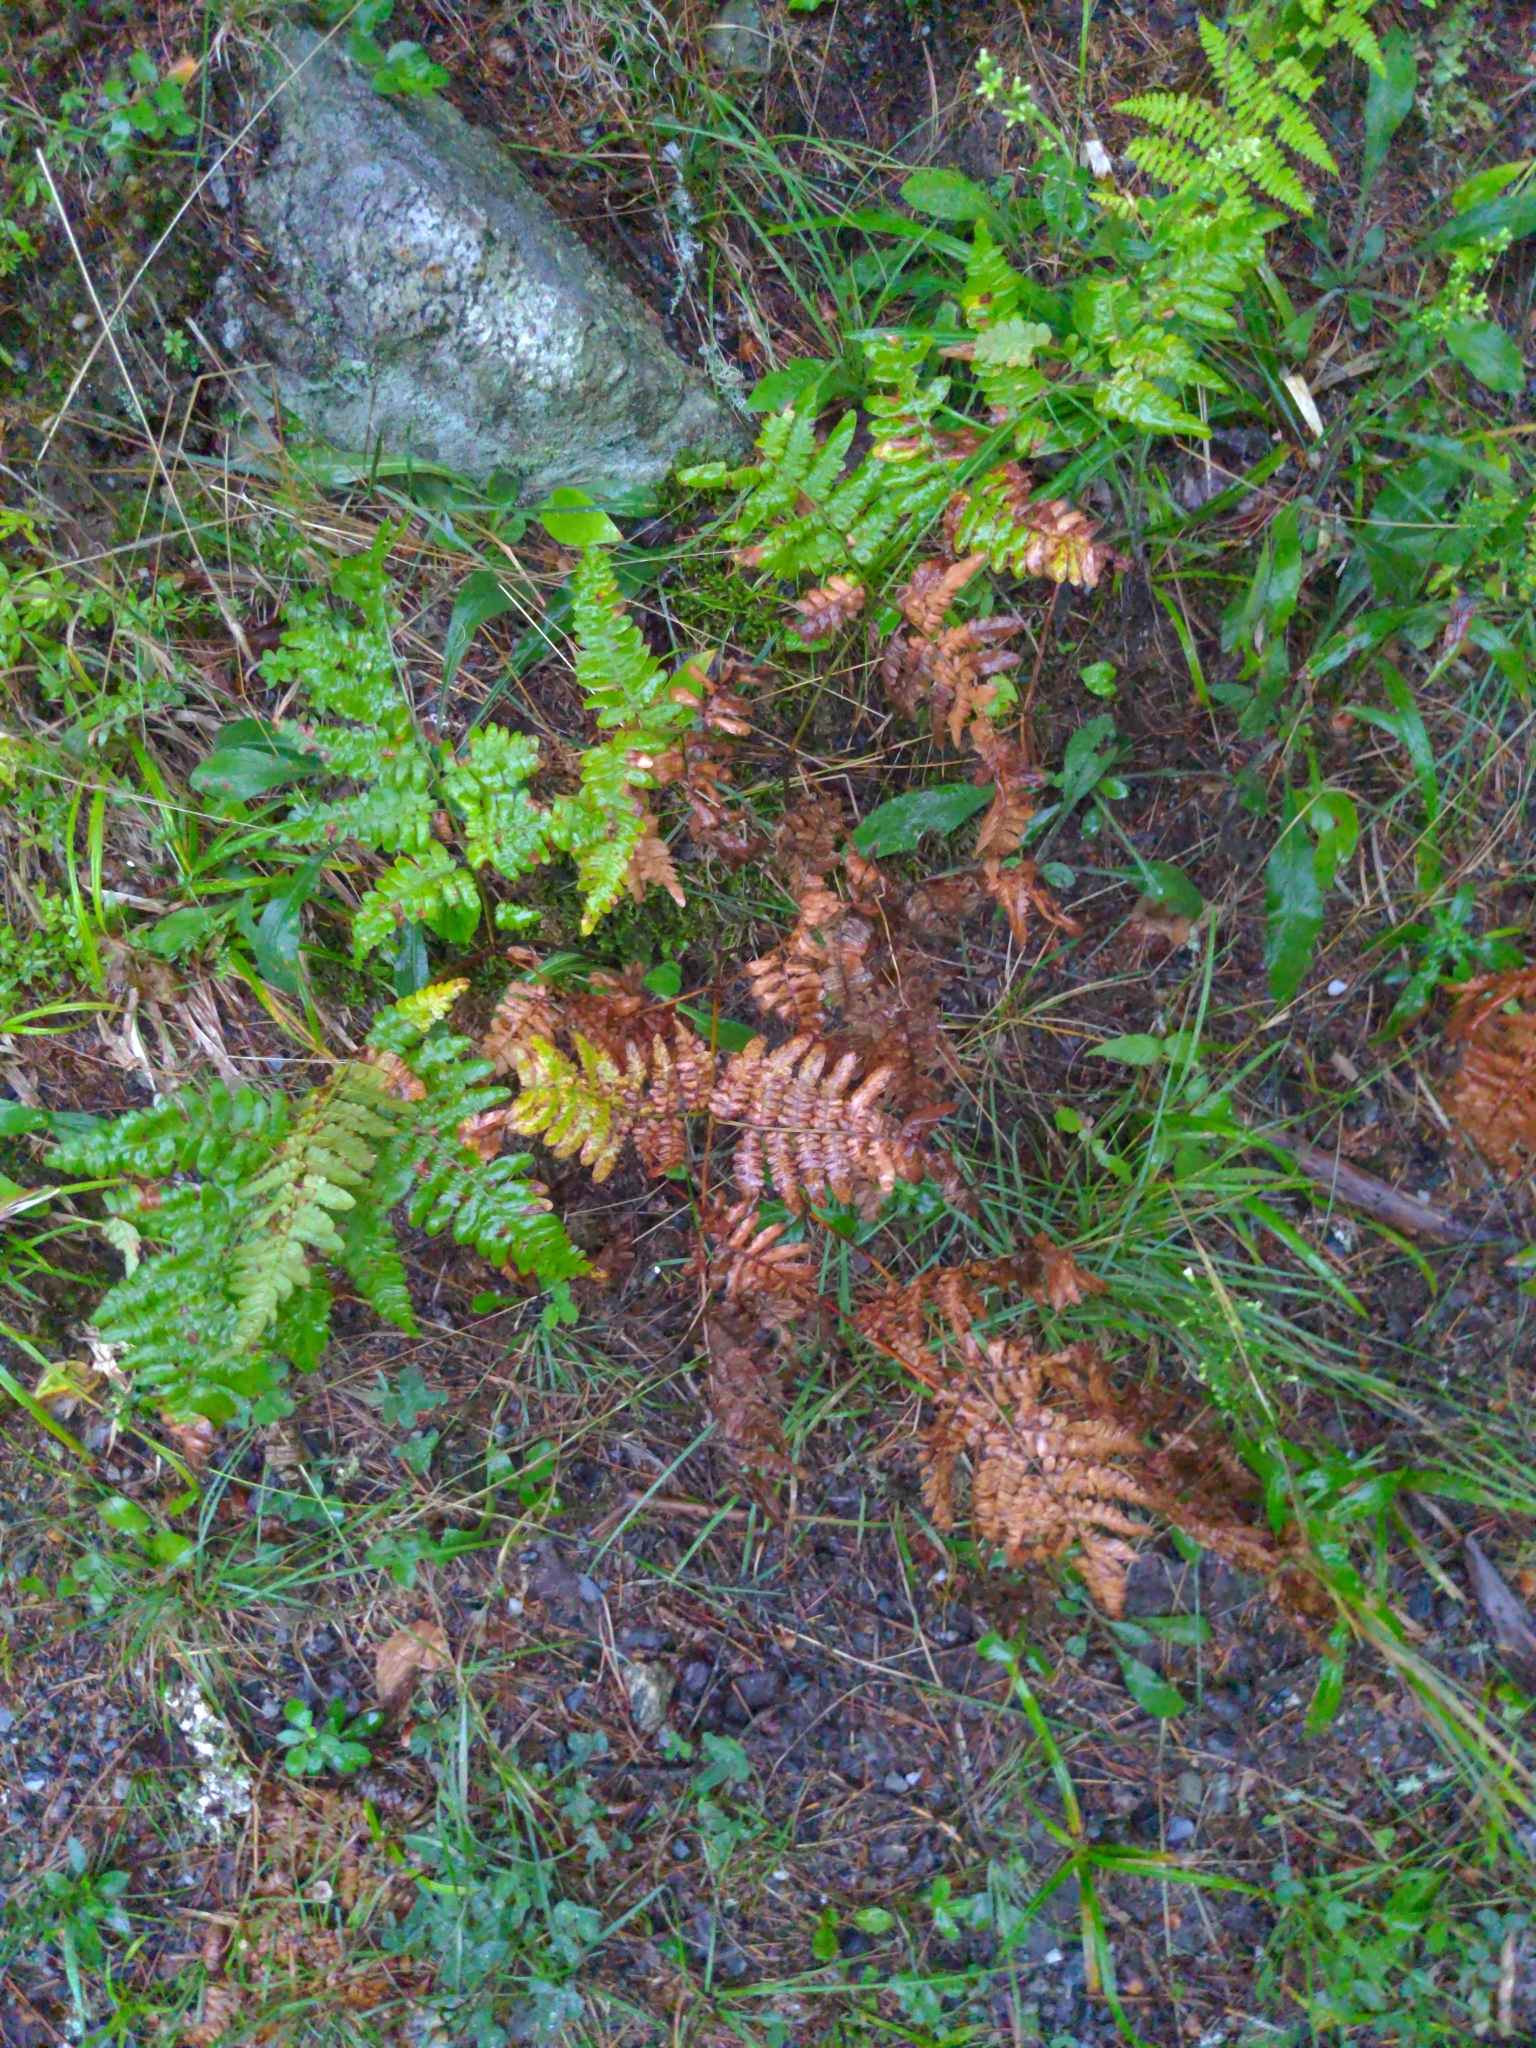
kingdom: Plantae
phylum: Tracheophyta
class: Polypodiopsida
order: Polypodiales
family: Dennstaedtiaceae
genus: Pteridium
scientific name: Pteridium aquilinum
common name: Bracken
